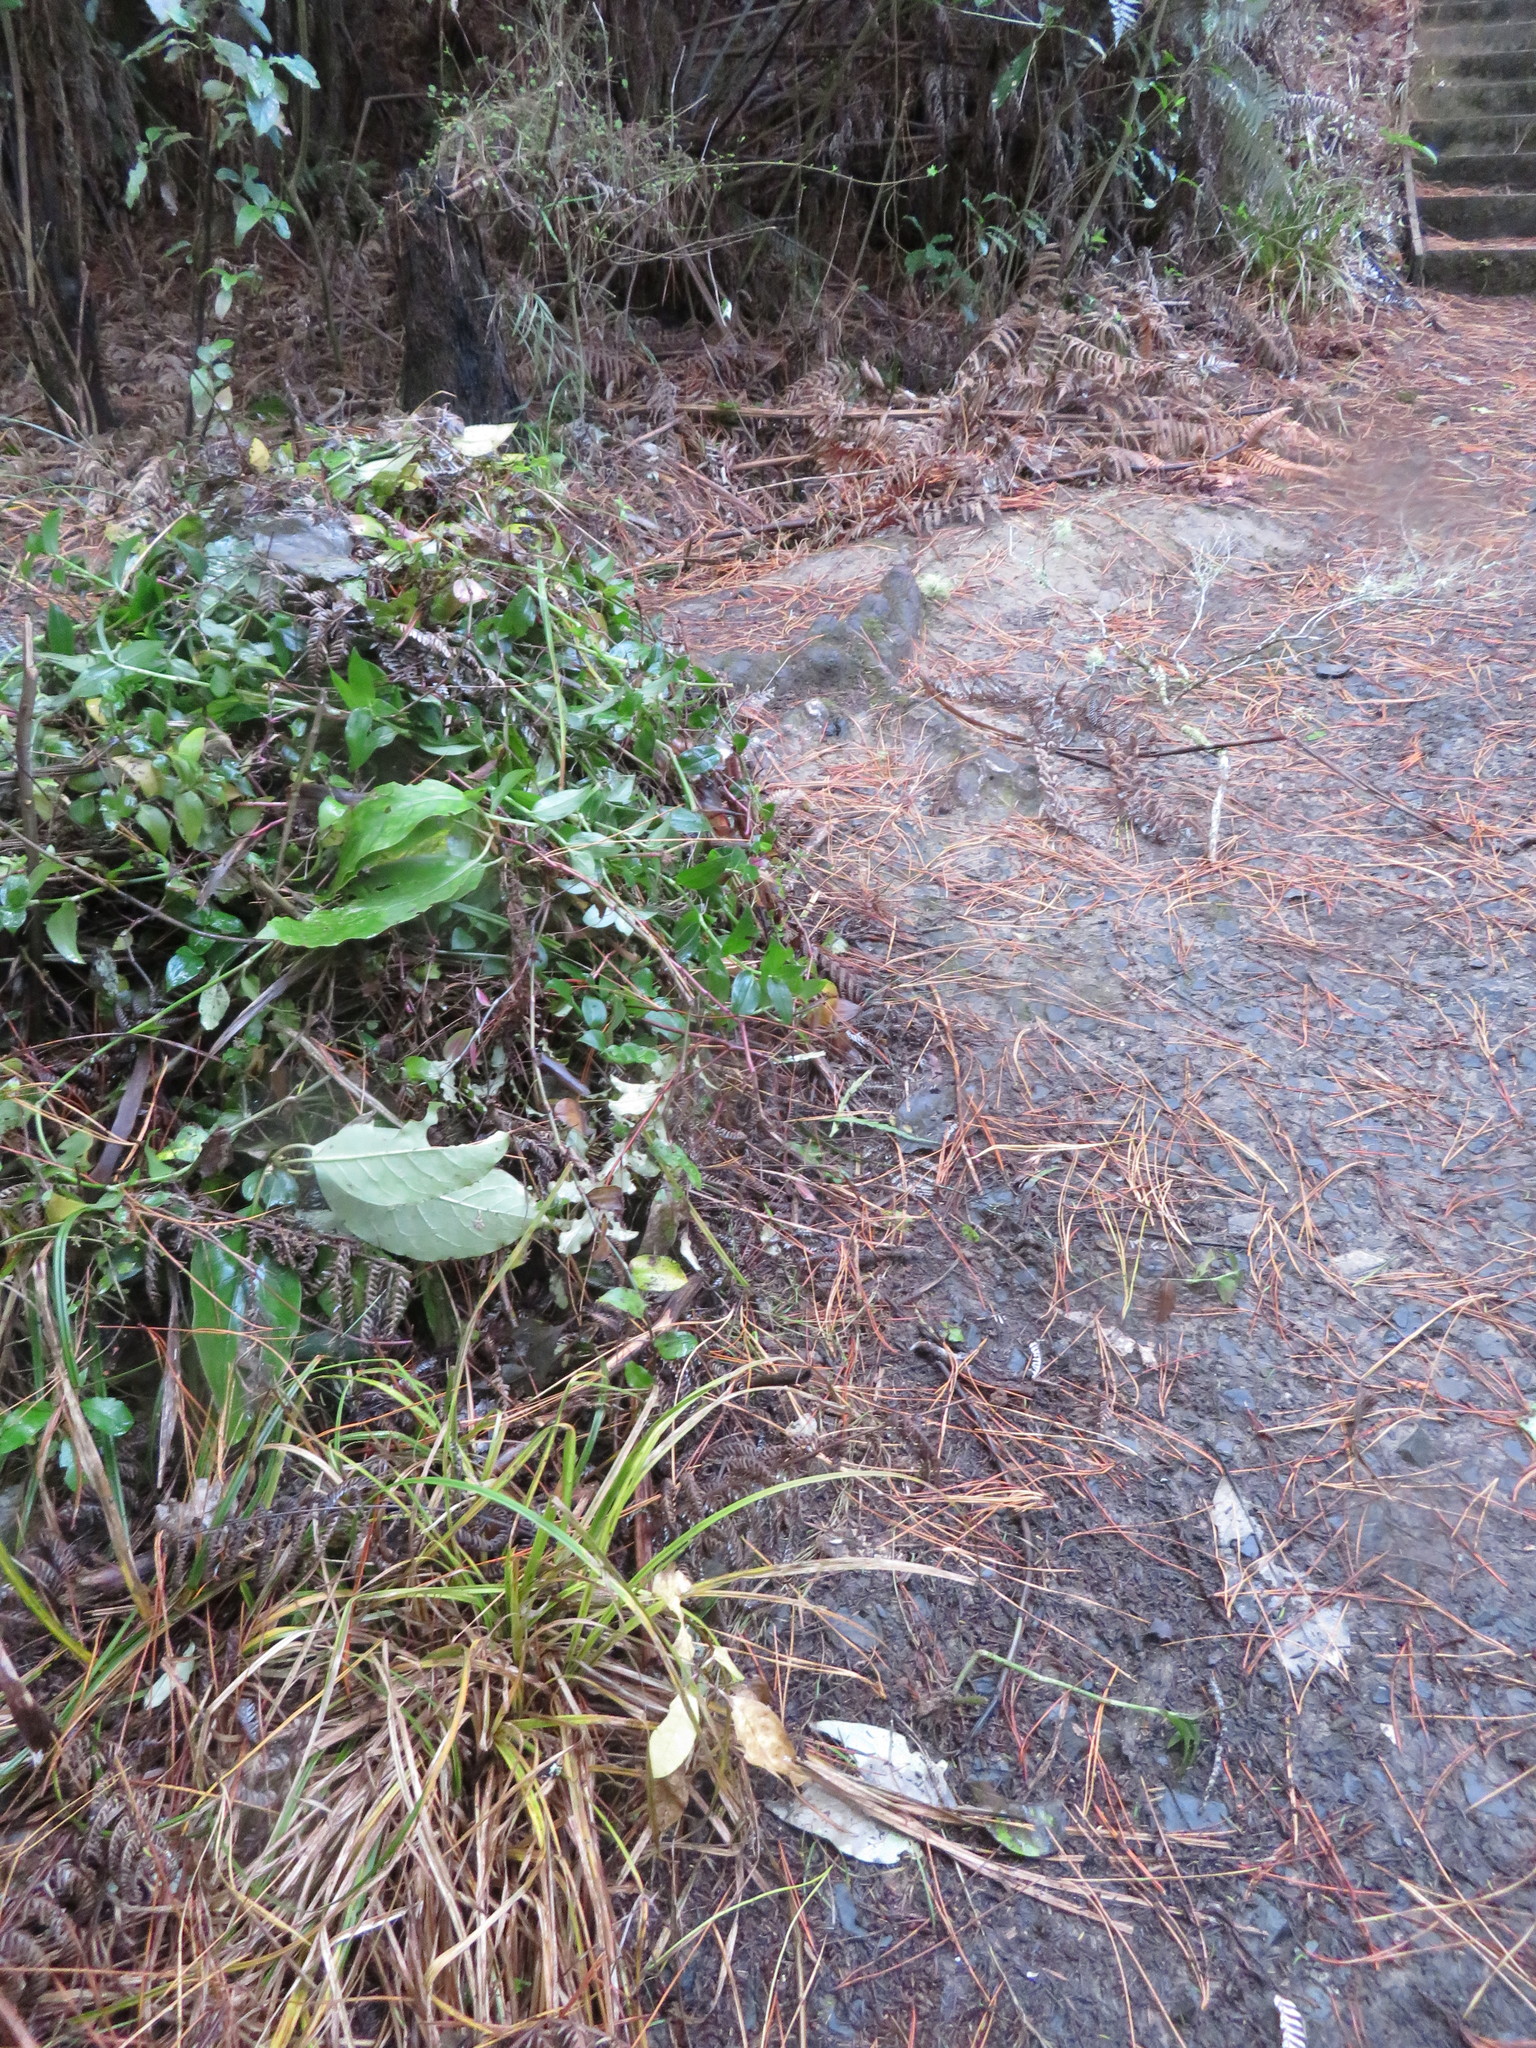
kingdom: Plantae
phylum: Tracheophyta
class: Liliopsida
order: Commelinales
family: Commelinaceae
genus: Tradescantia
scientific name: Tradescantia fluminensis
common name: Wandering-jew
